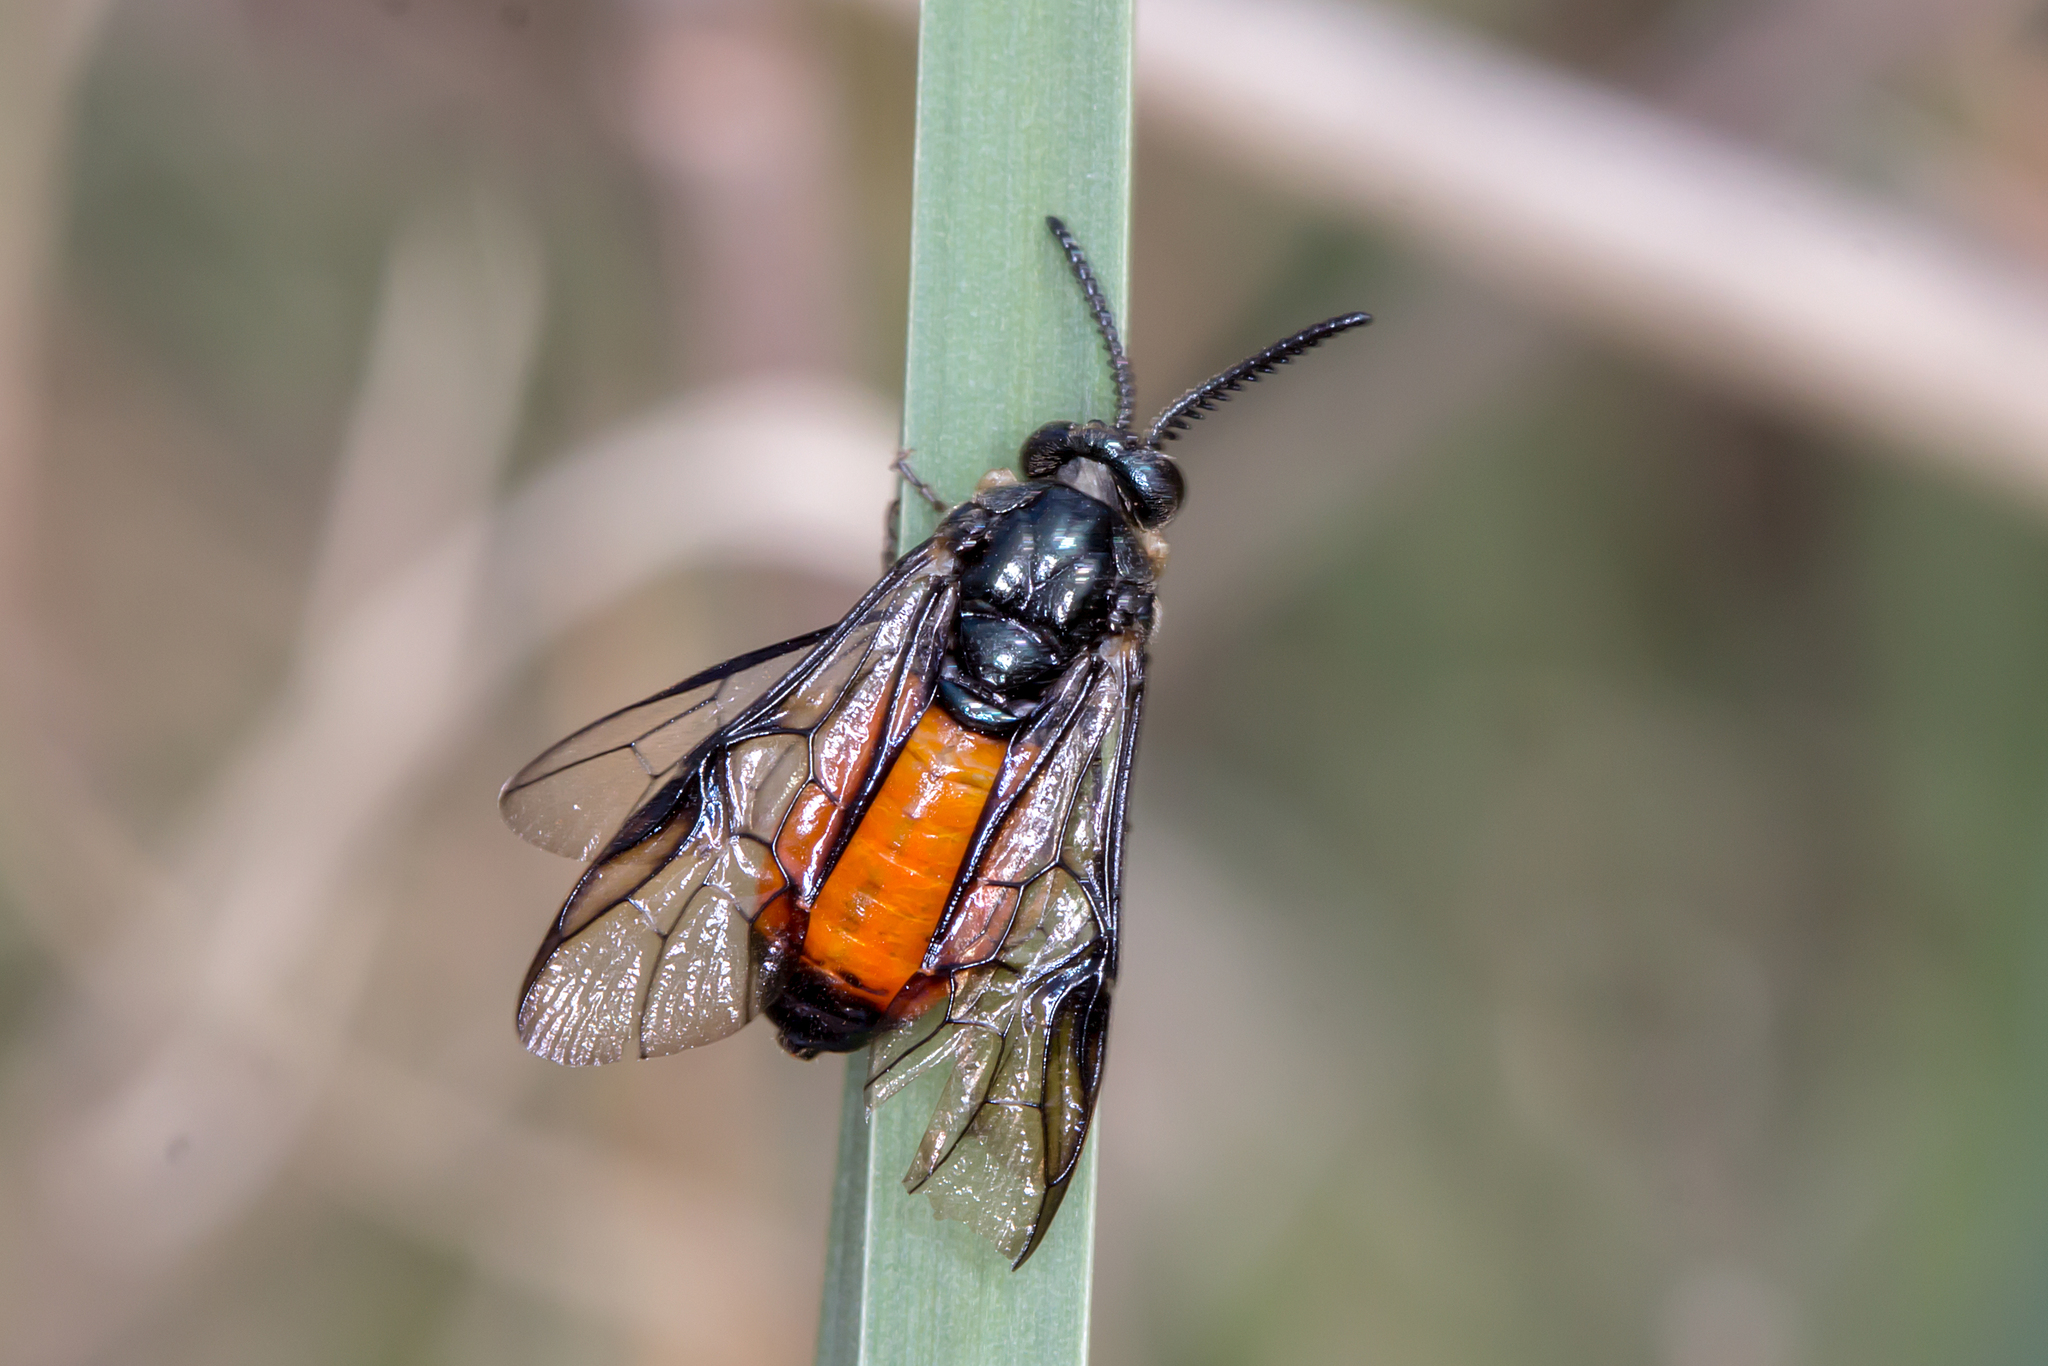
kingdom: Animalia
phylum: Arthropoda
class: Insecta
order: Hymenoptera
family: Pergidae
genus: Lophyrotoma
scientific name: Lophyrotoma analis
